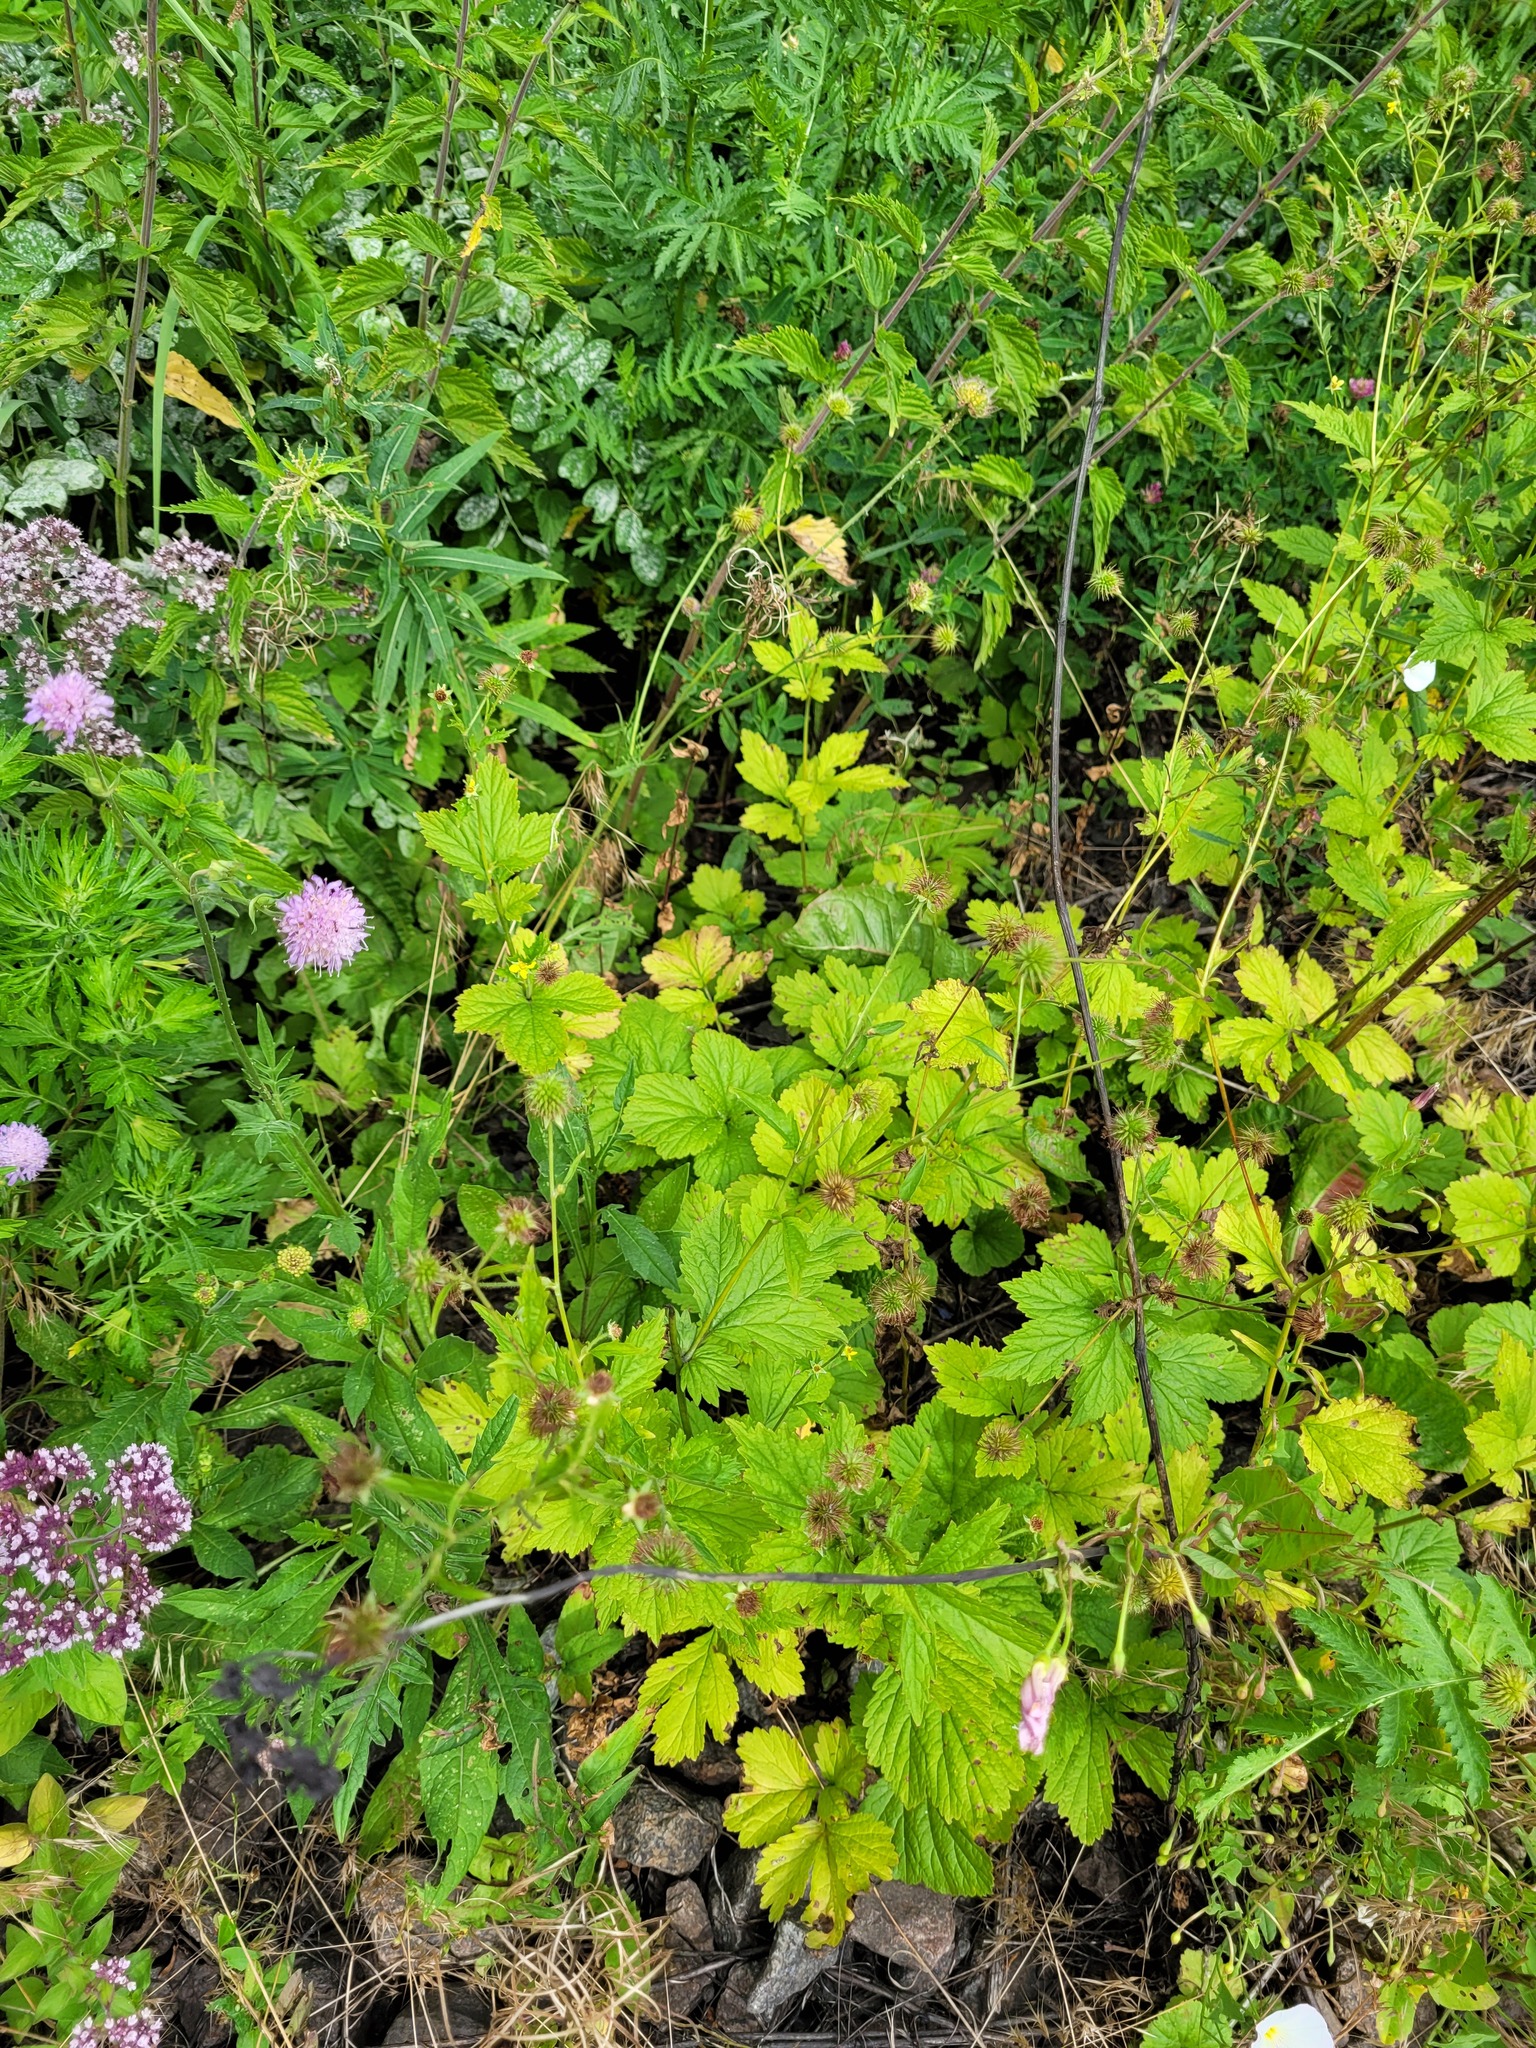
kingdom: Plantae
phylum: Tracheophyta
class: Magnoliopsida
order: Rosales
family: Rosaceae
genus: Geum
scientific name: Geum urbanum
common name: Wood avens
